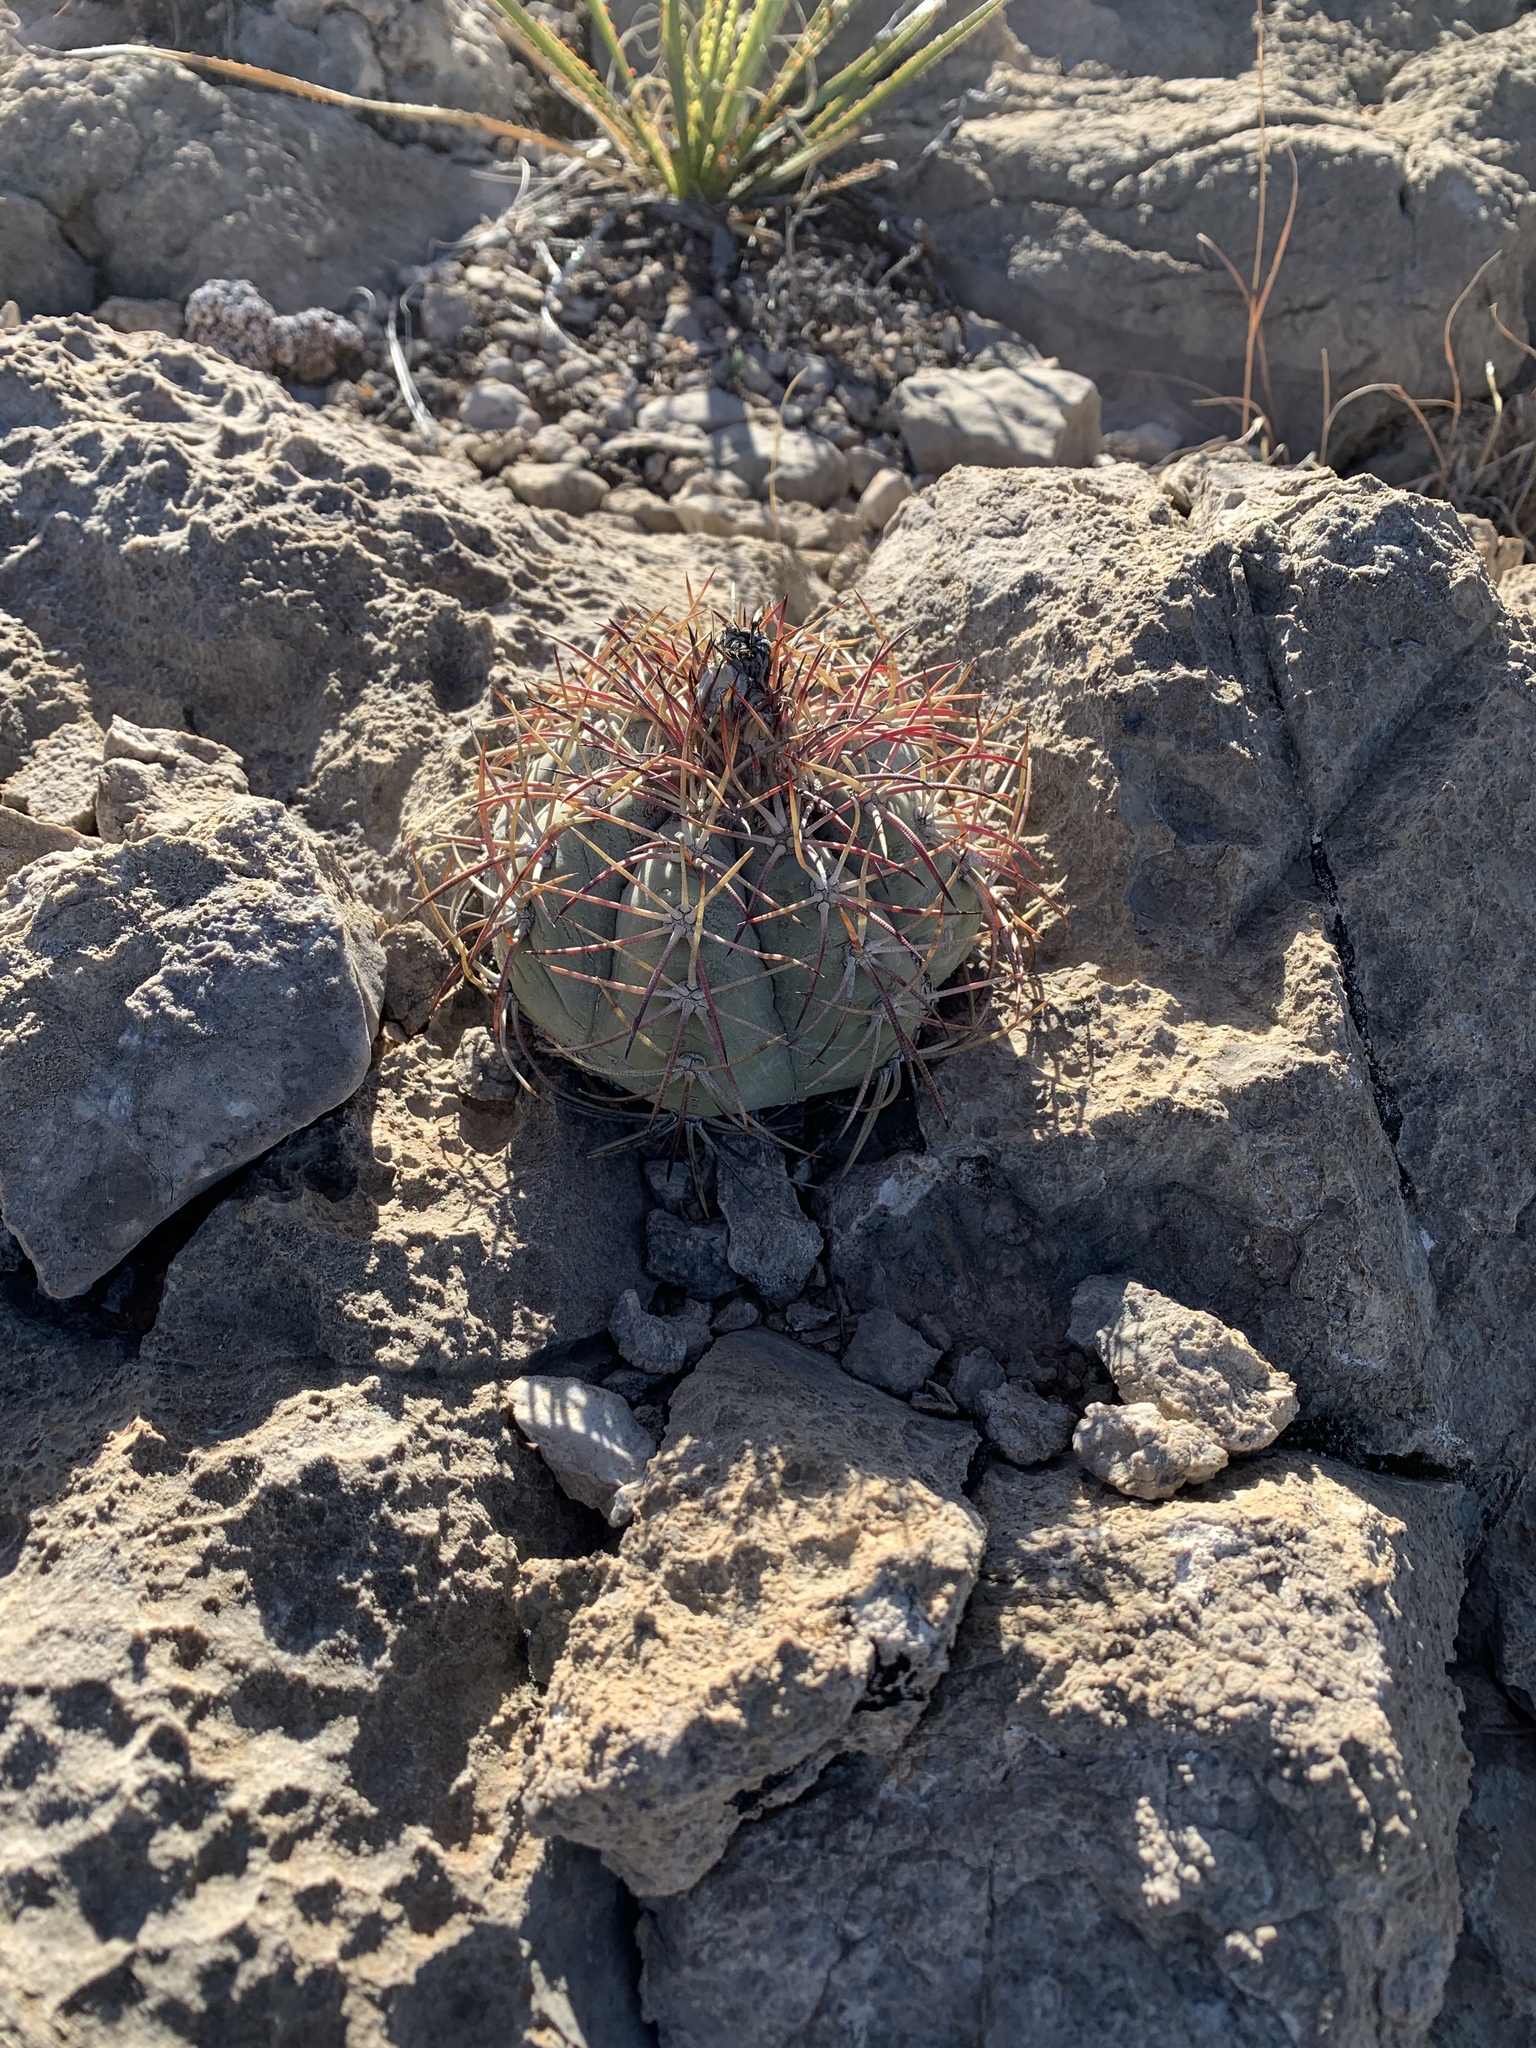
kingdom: Plantae
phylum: Tracheophyta
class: Magnoliopsida
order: Caryophyllales
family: Cactaceae
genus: Echinocactus
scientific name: Echinocactus horizonthalonius
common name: Devilshead
